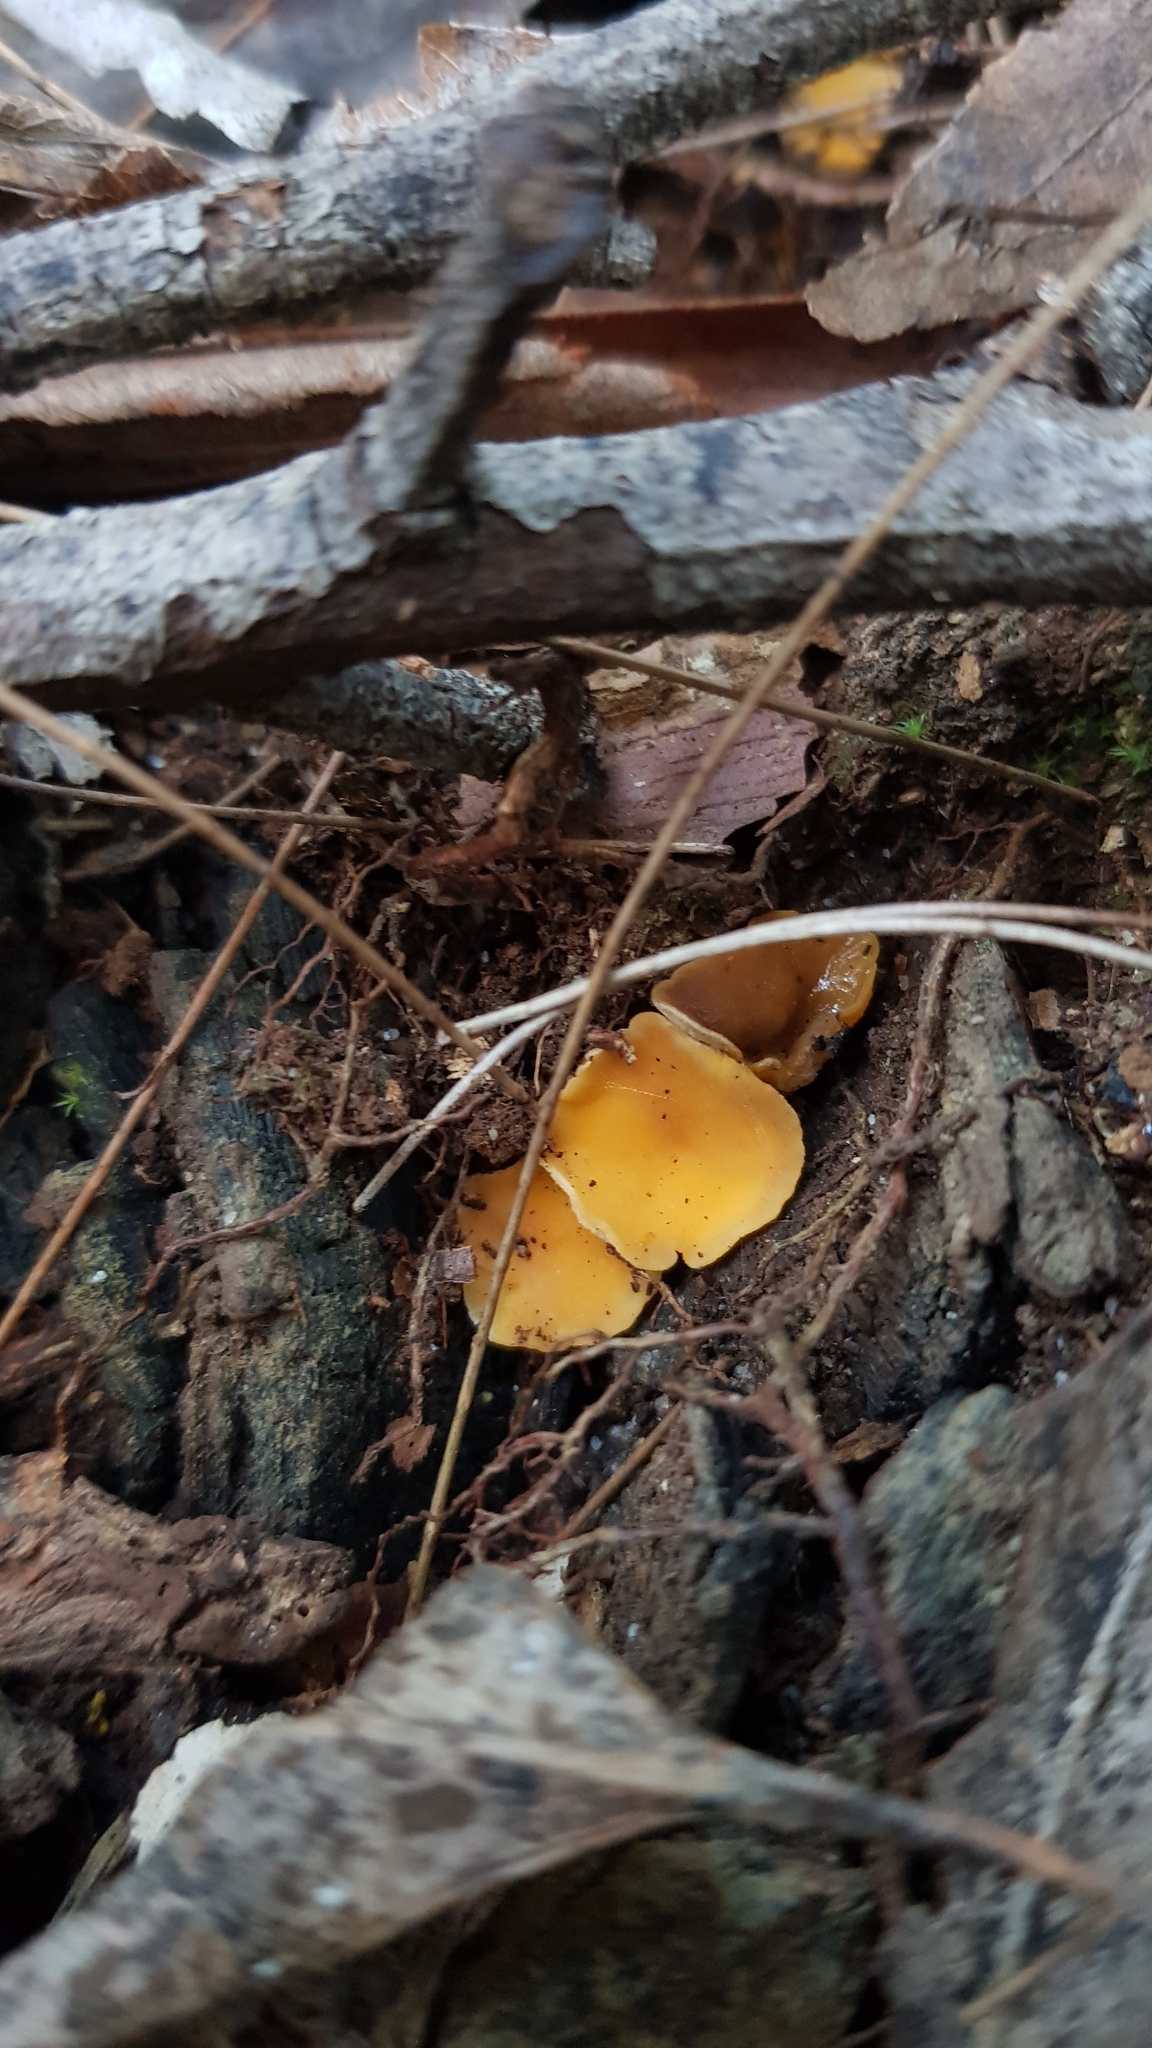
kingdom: Fungi
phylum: Ascomycota
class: Leotiomycetes
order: Helotiales
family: Helotiaceae
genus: Phaeohelotium
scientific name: Phaeohelotium baileyanum
